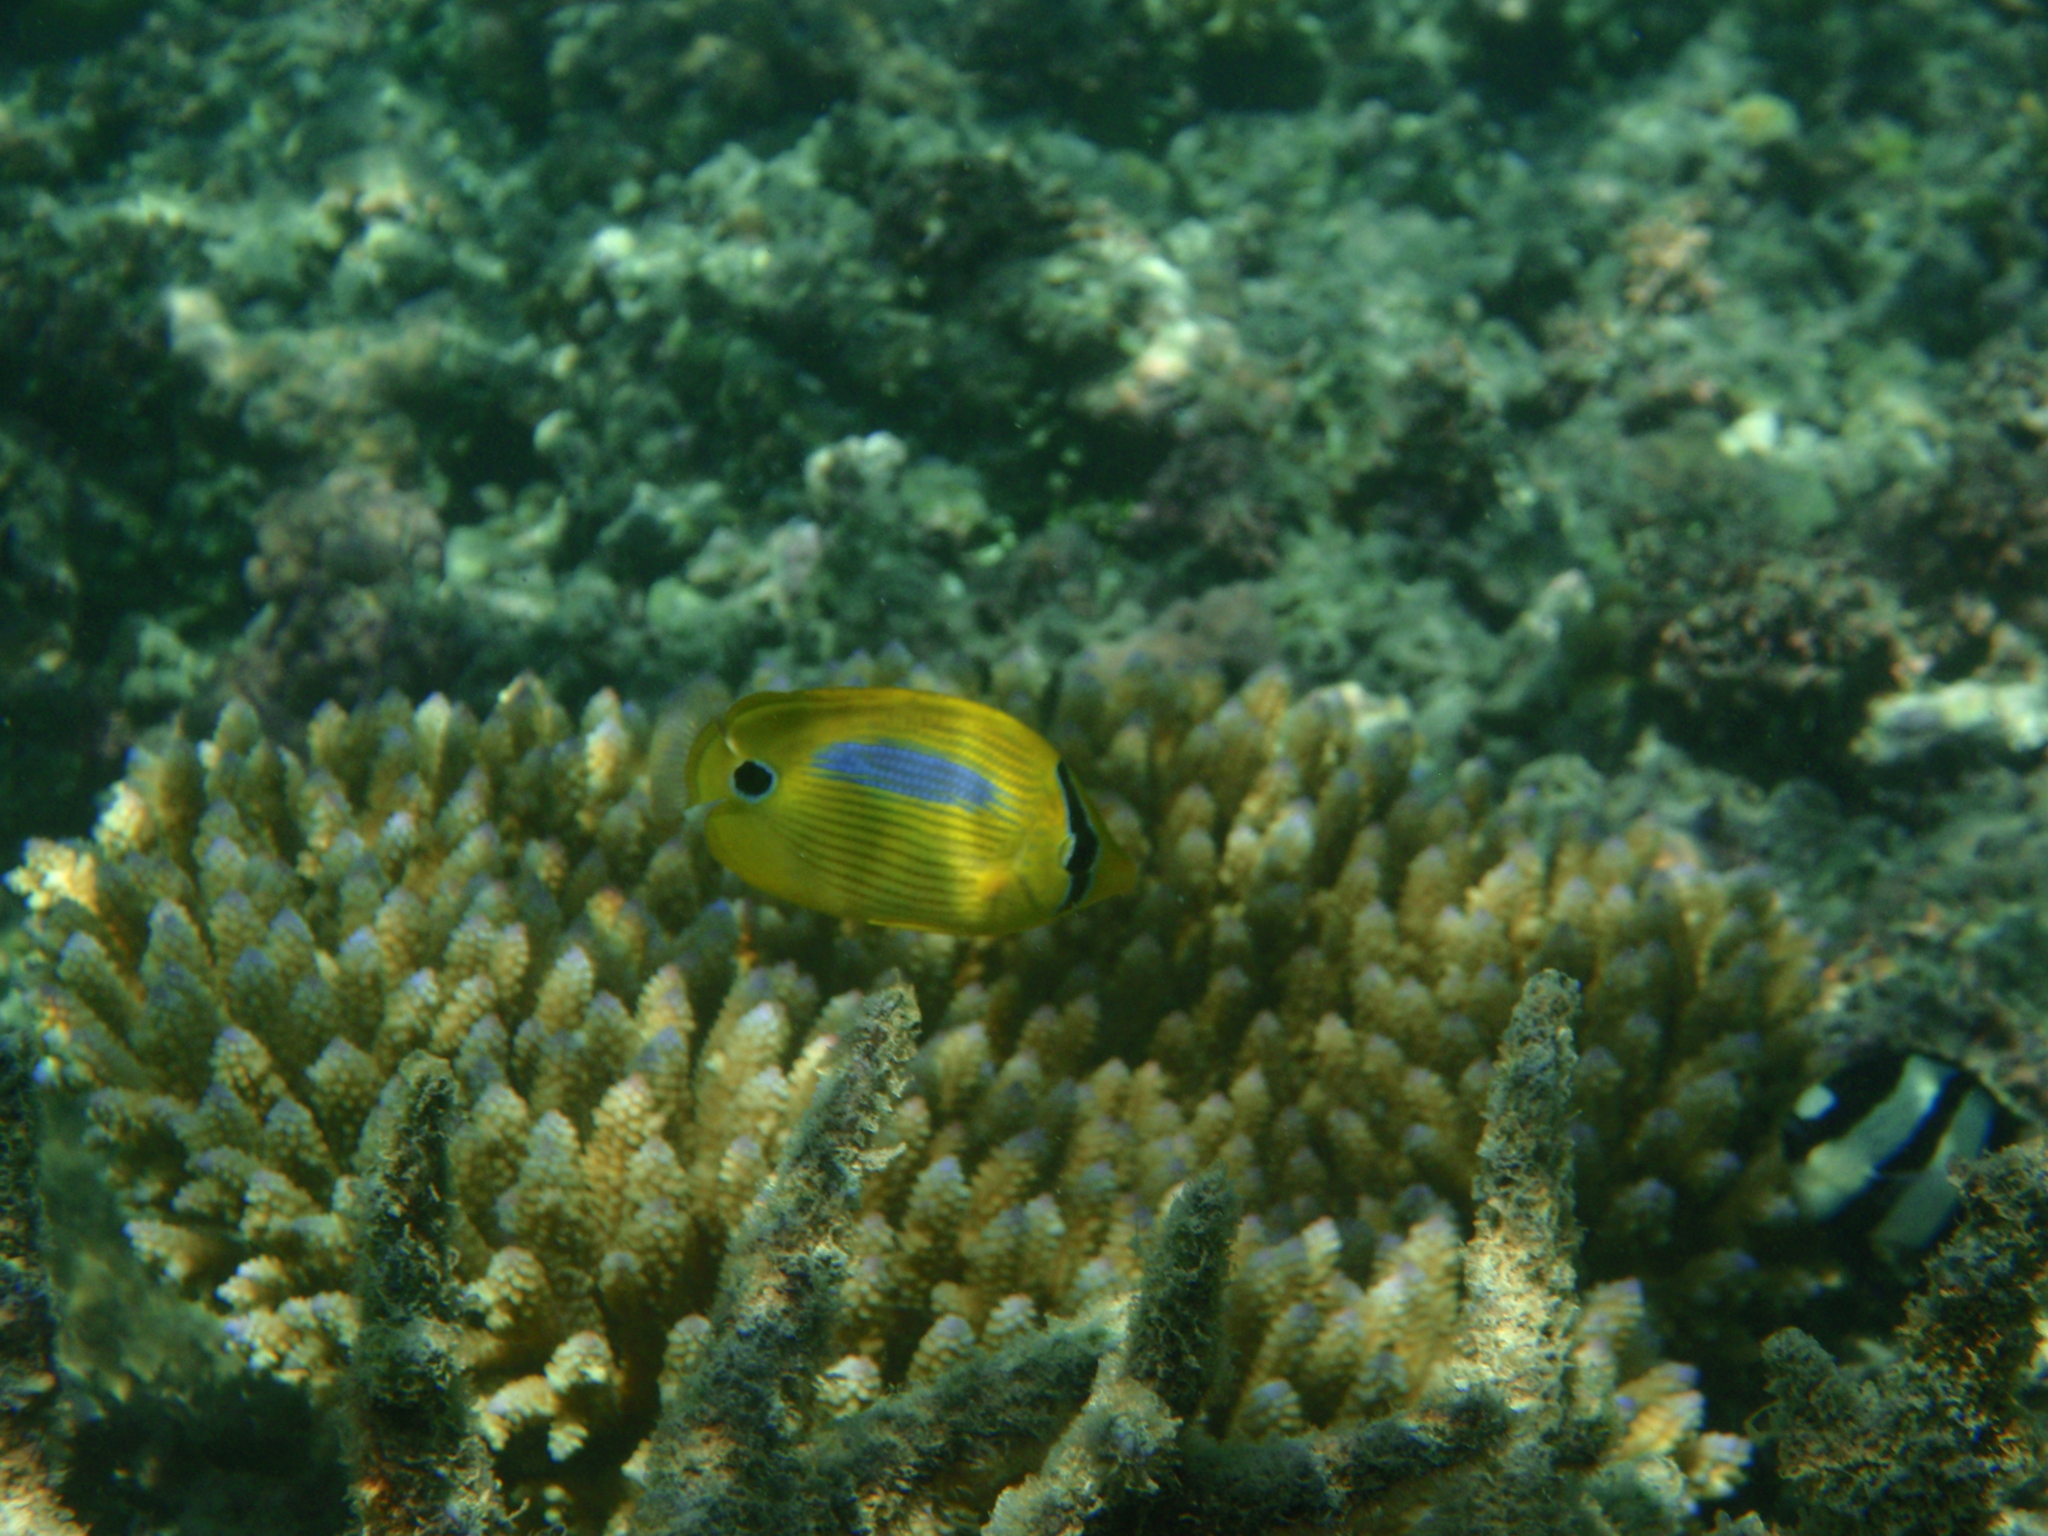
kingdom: Animalia
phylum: Chordata
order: Perciformes
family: Chaetodontidae
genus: Chaetodon
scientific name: Chaetodon plebeius
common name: Bluespot butterflyfish
